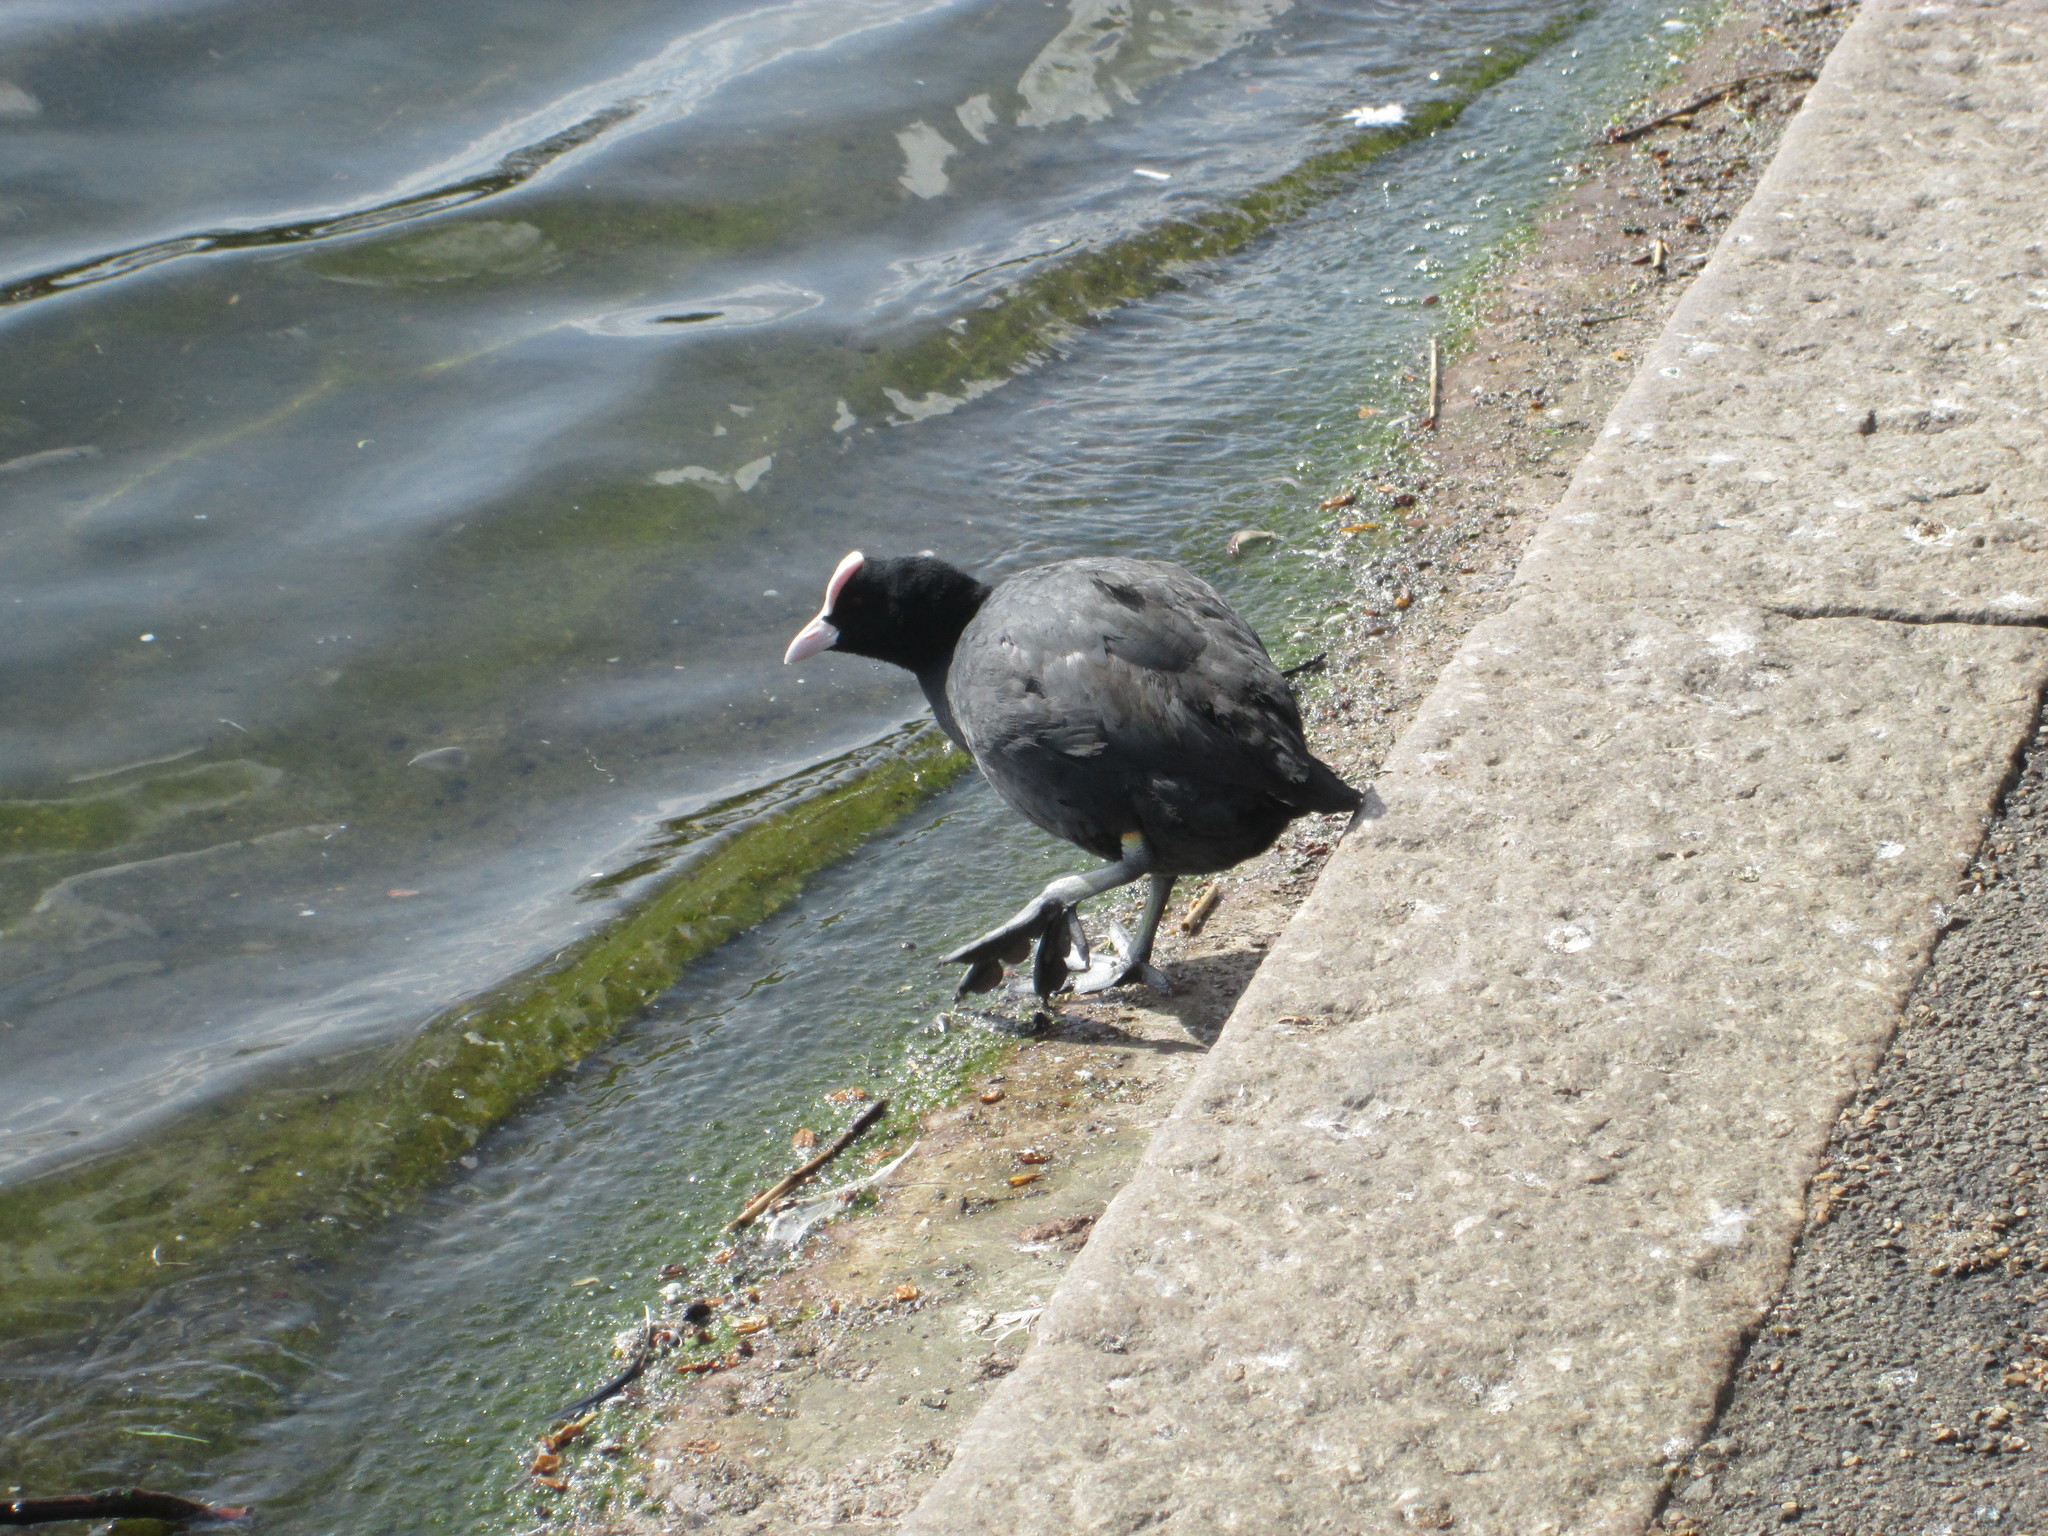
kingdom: Animalia
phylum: Chordata
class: Aves
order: Gruiformes
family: Rallidae
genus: Fulica
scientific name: Fulica atra
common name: Eurasian coot
